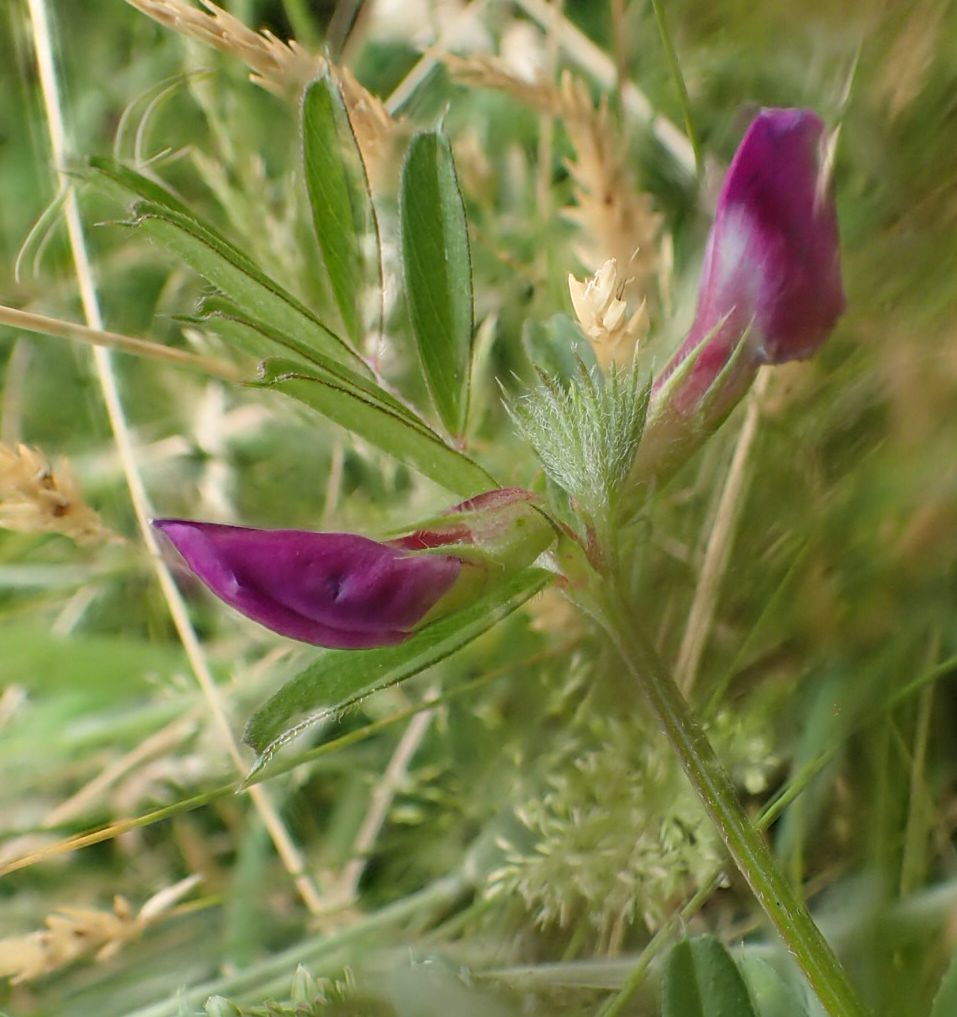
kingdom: Plantae
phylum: Tracheophyta
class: Magnoliopsida
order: Fabales
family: Fabaceae
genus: Vicia
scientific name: Vicia sativa
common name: Garden vetch
